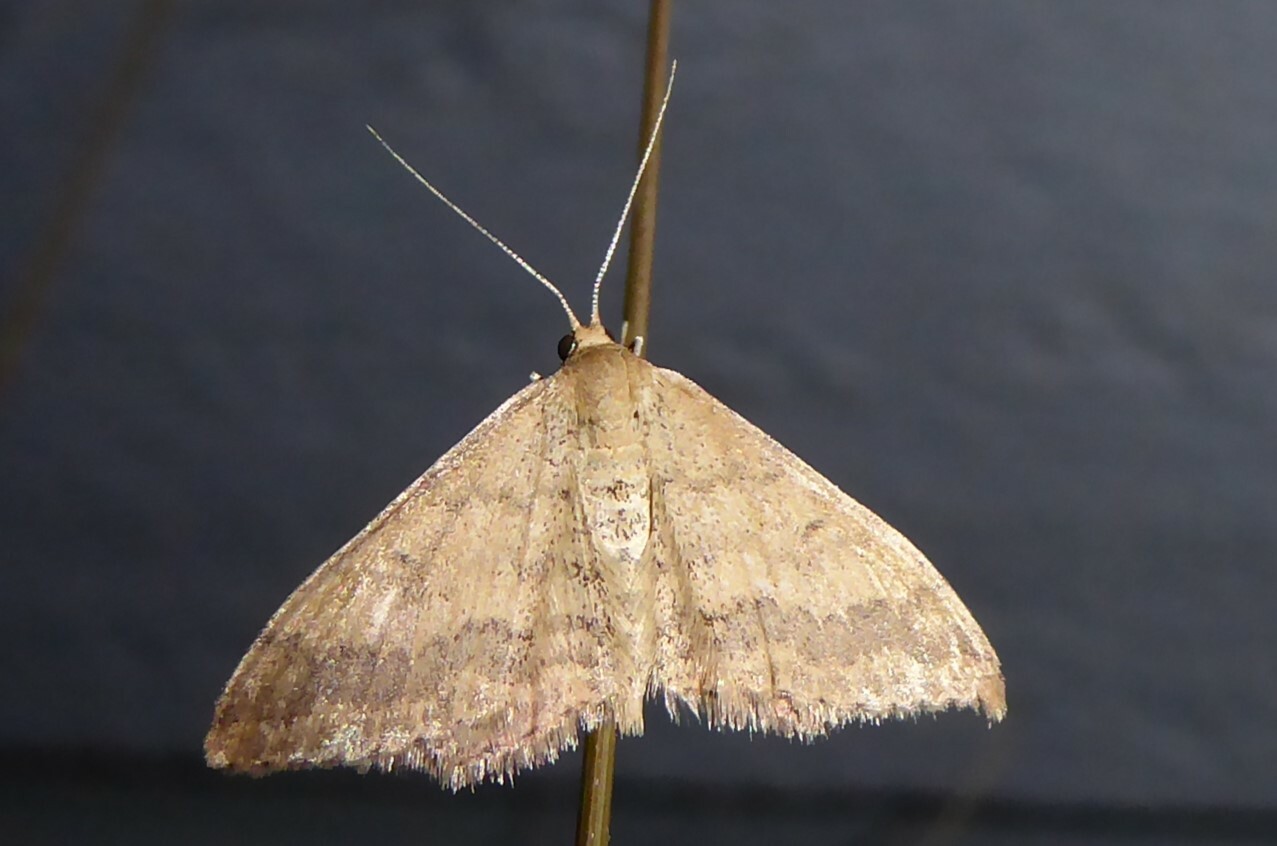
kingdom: Animalia
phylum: Arthropoda
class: Insecta
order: Lepidoptera
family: Geometridae
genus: Scopula
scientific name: Scopula rubraria
